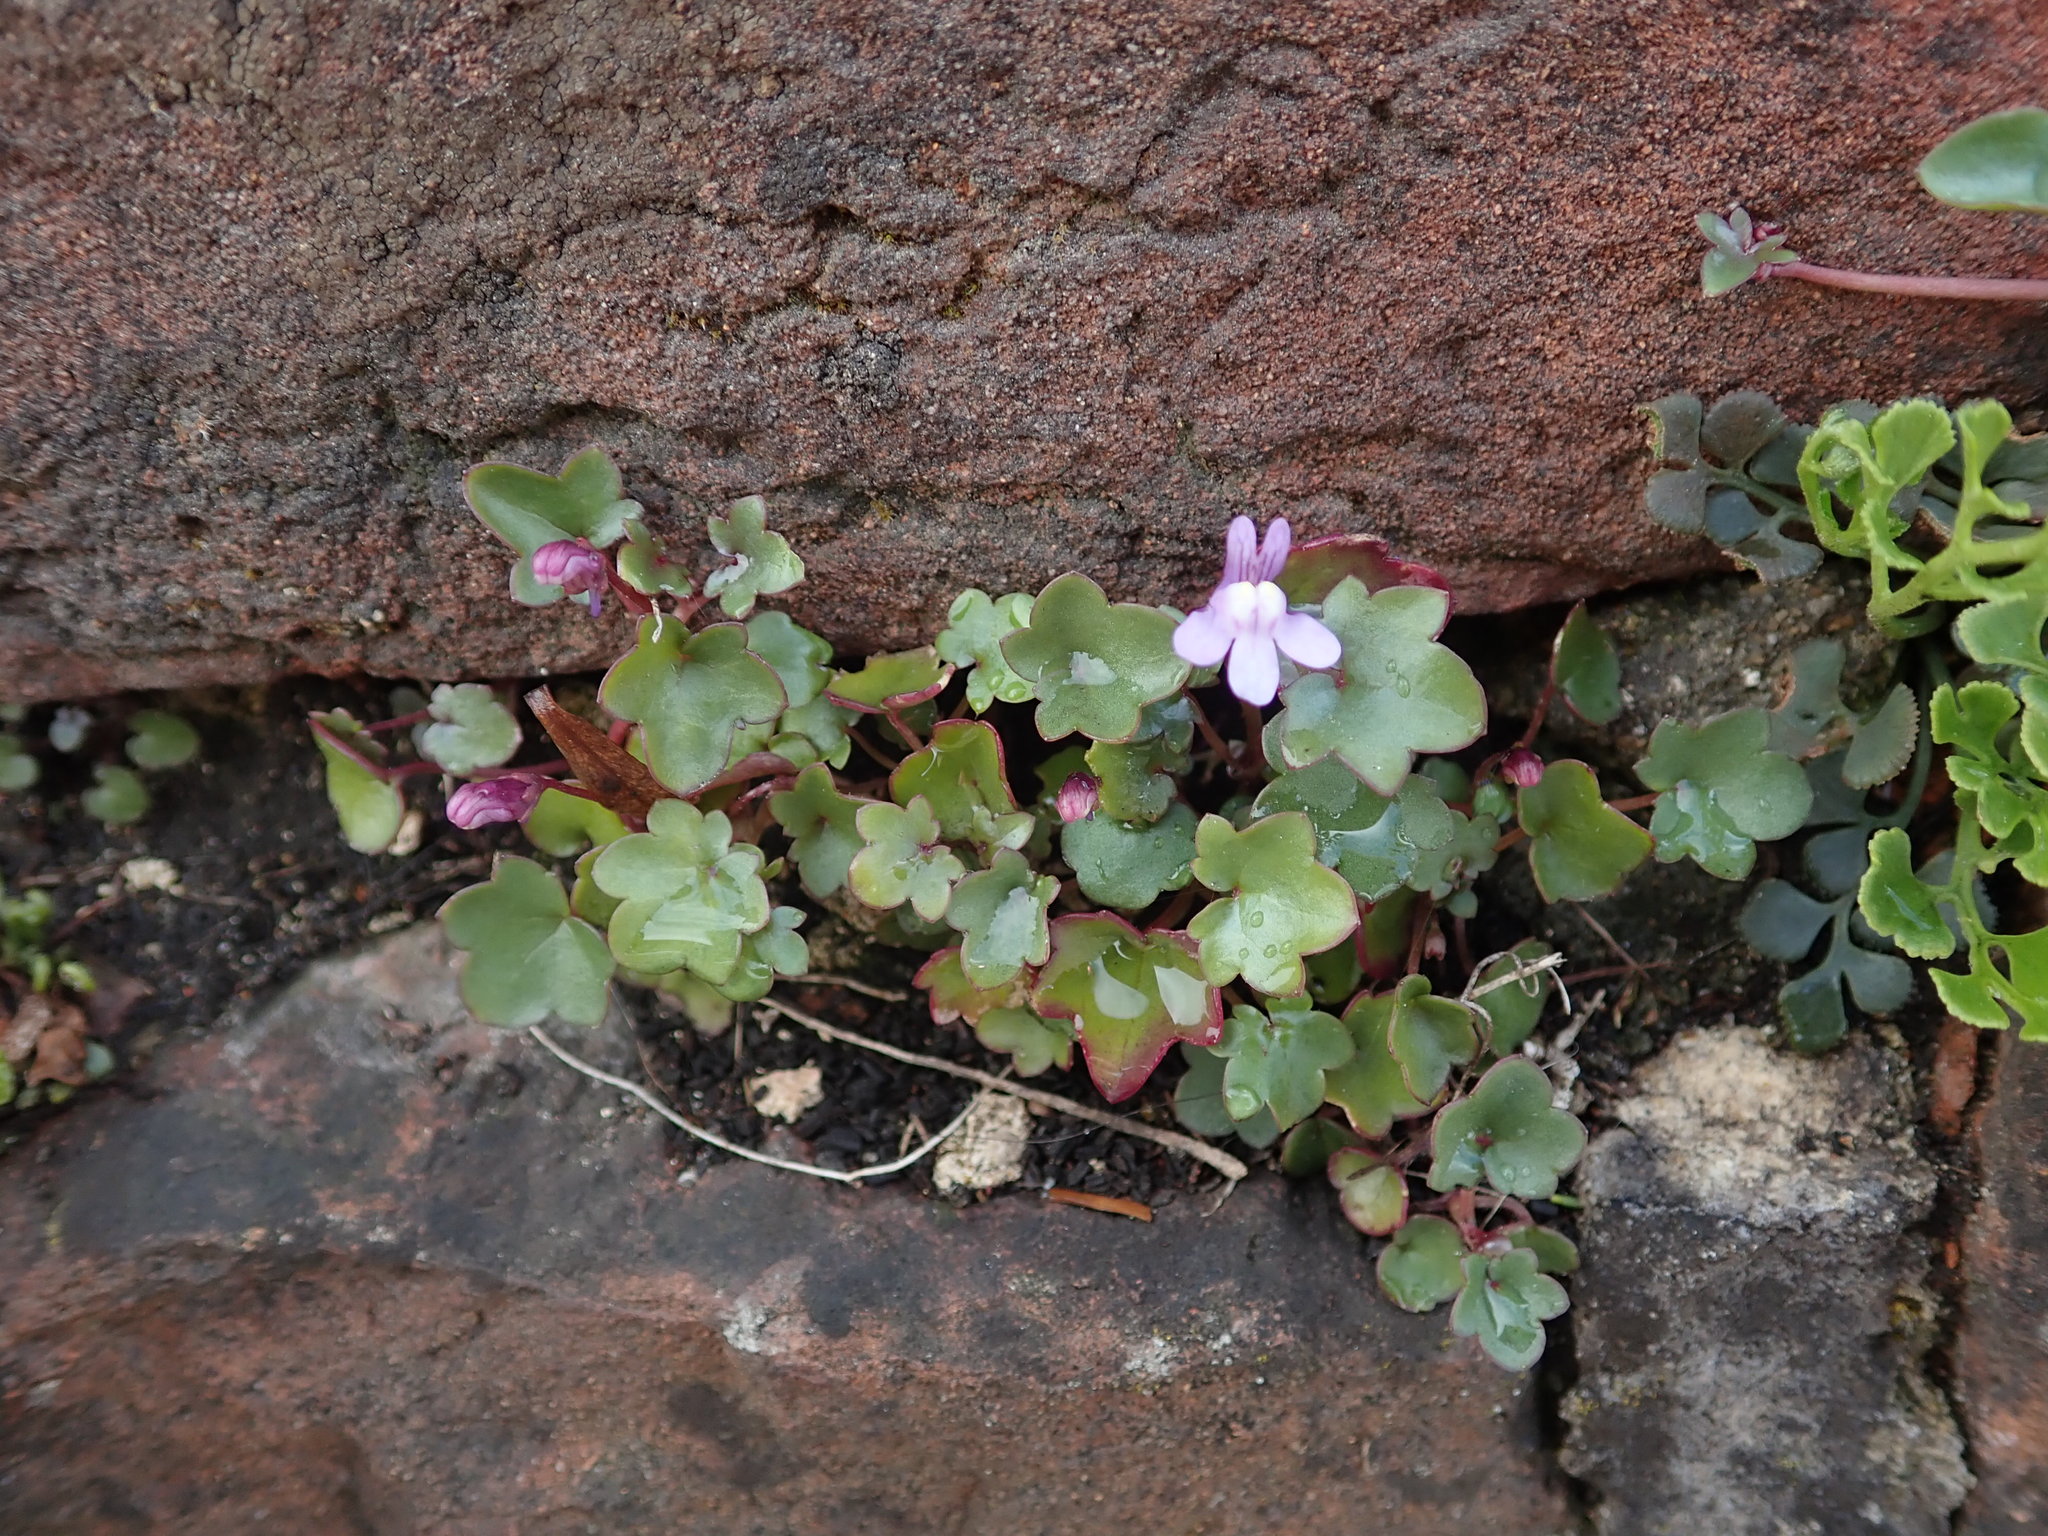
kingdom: Plantae
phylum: Tracheophyta
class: Magnoliopsida
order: Lamiales
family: Plantaginaceae
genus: Cymbalaria
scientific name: Cymbalaria muralis
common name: Ivy-leaved toadflax
